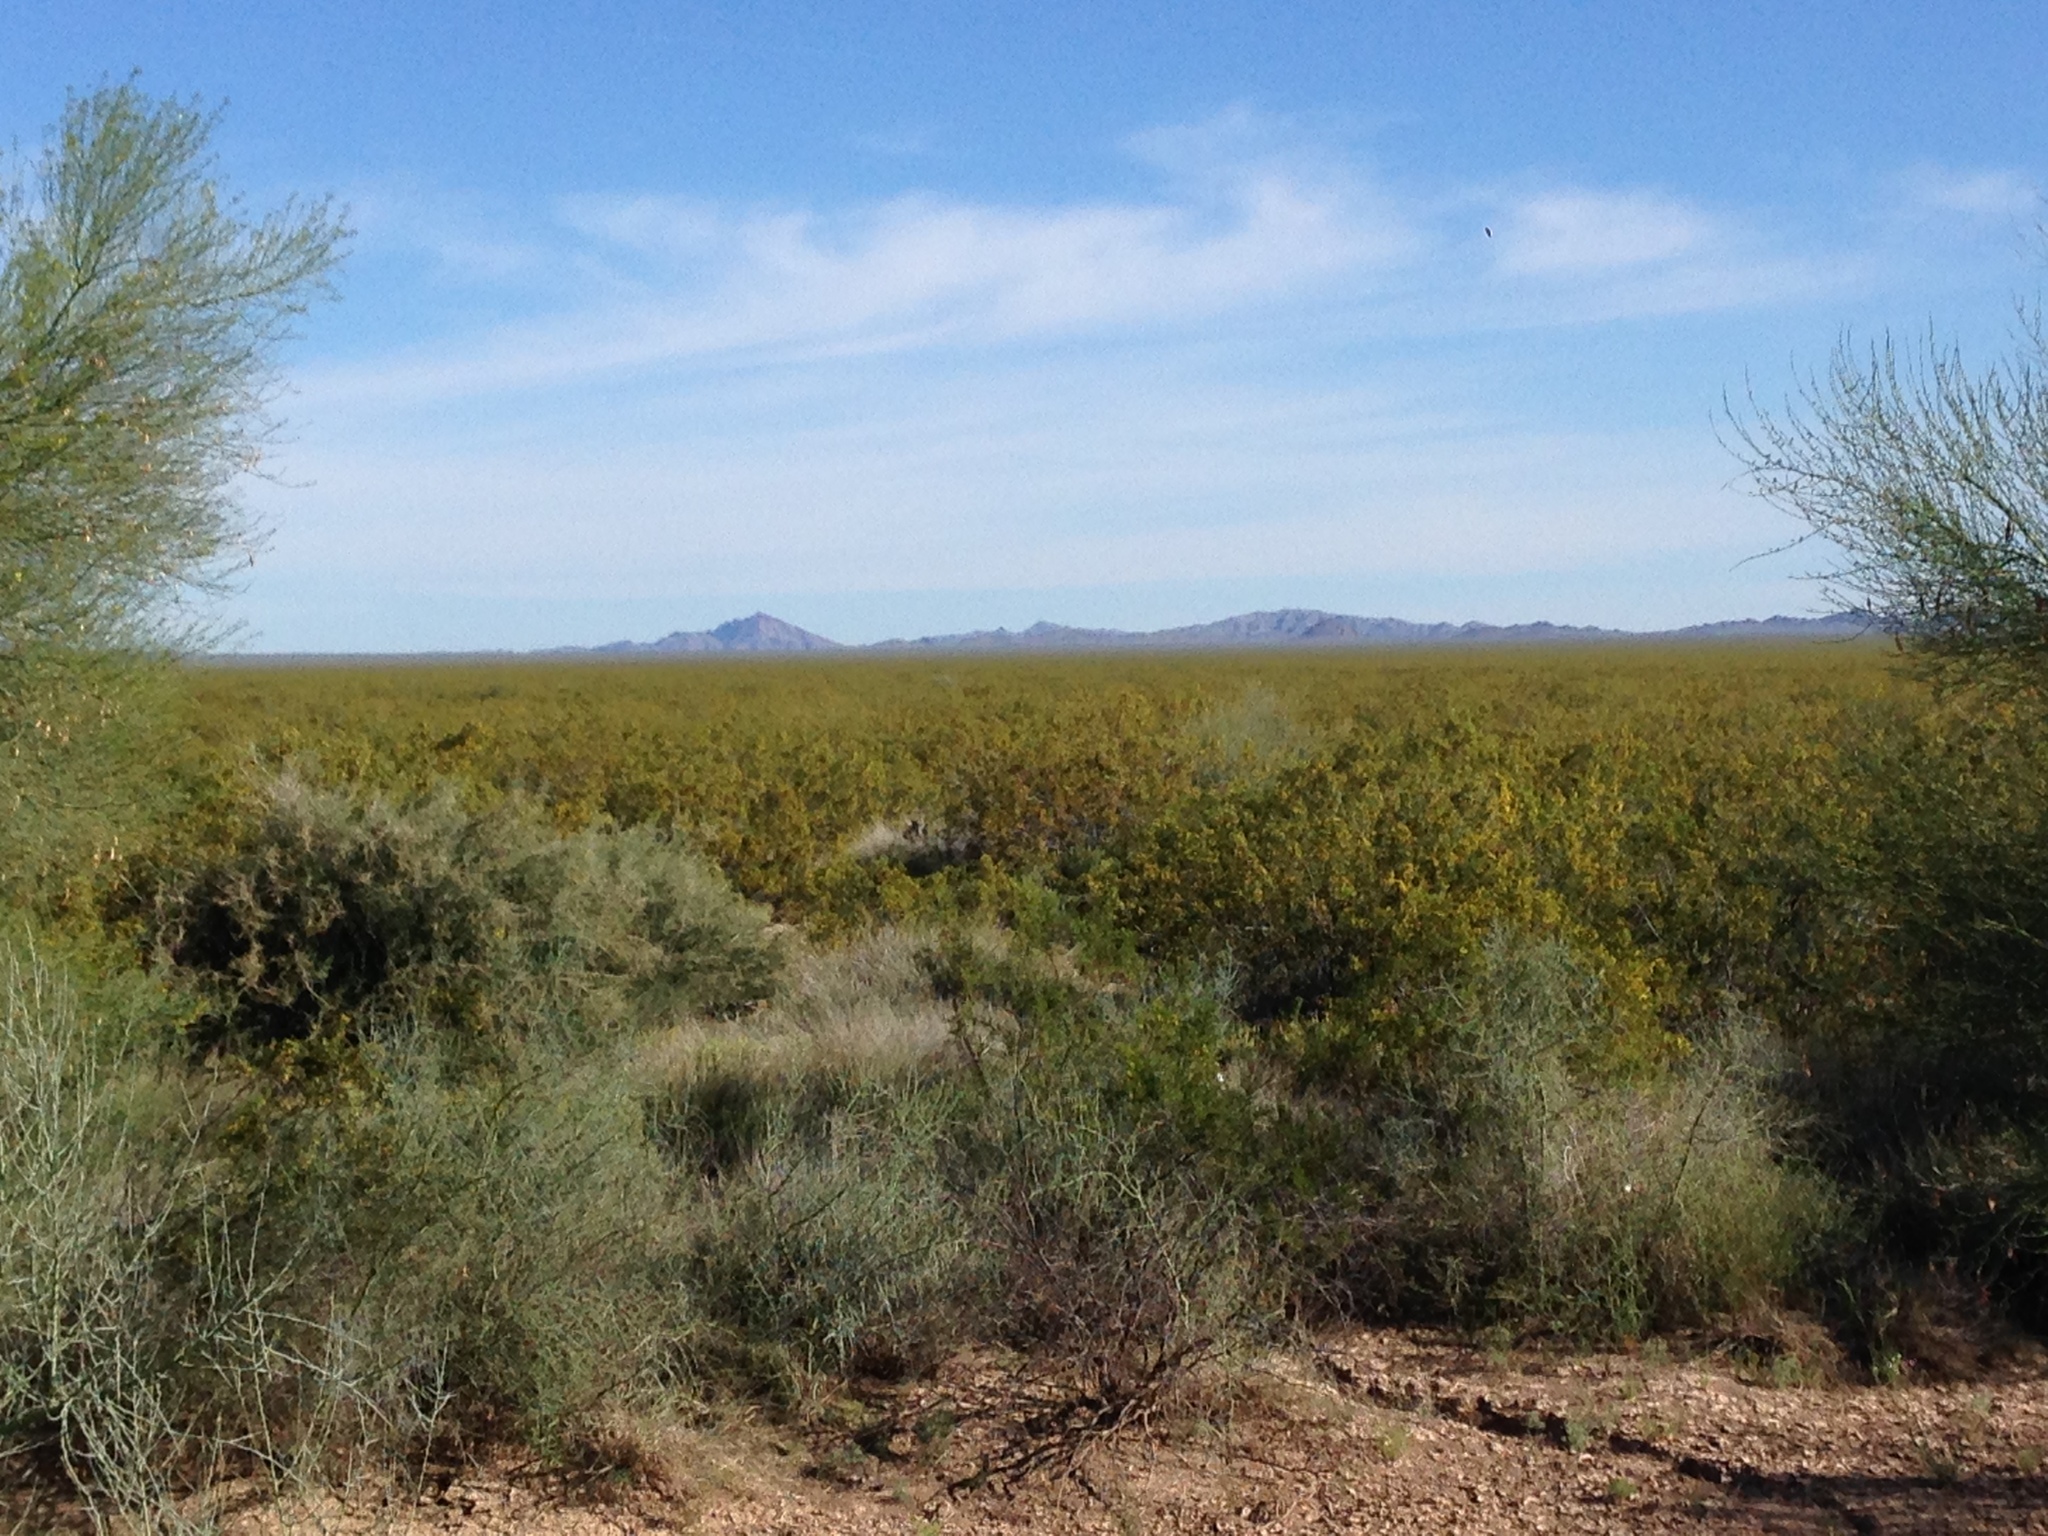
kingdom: Plantae
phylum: Tracheophyta
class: Magnoliopsida
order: Zygophyllales
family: Zygophyllaceae
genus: Larrea
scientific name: Larrea tridentata
